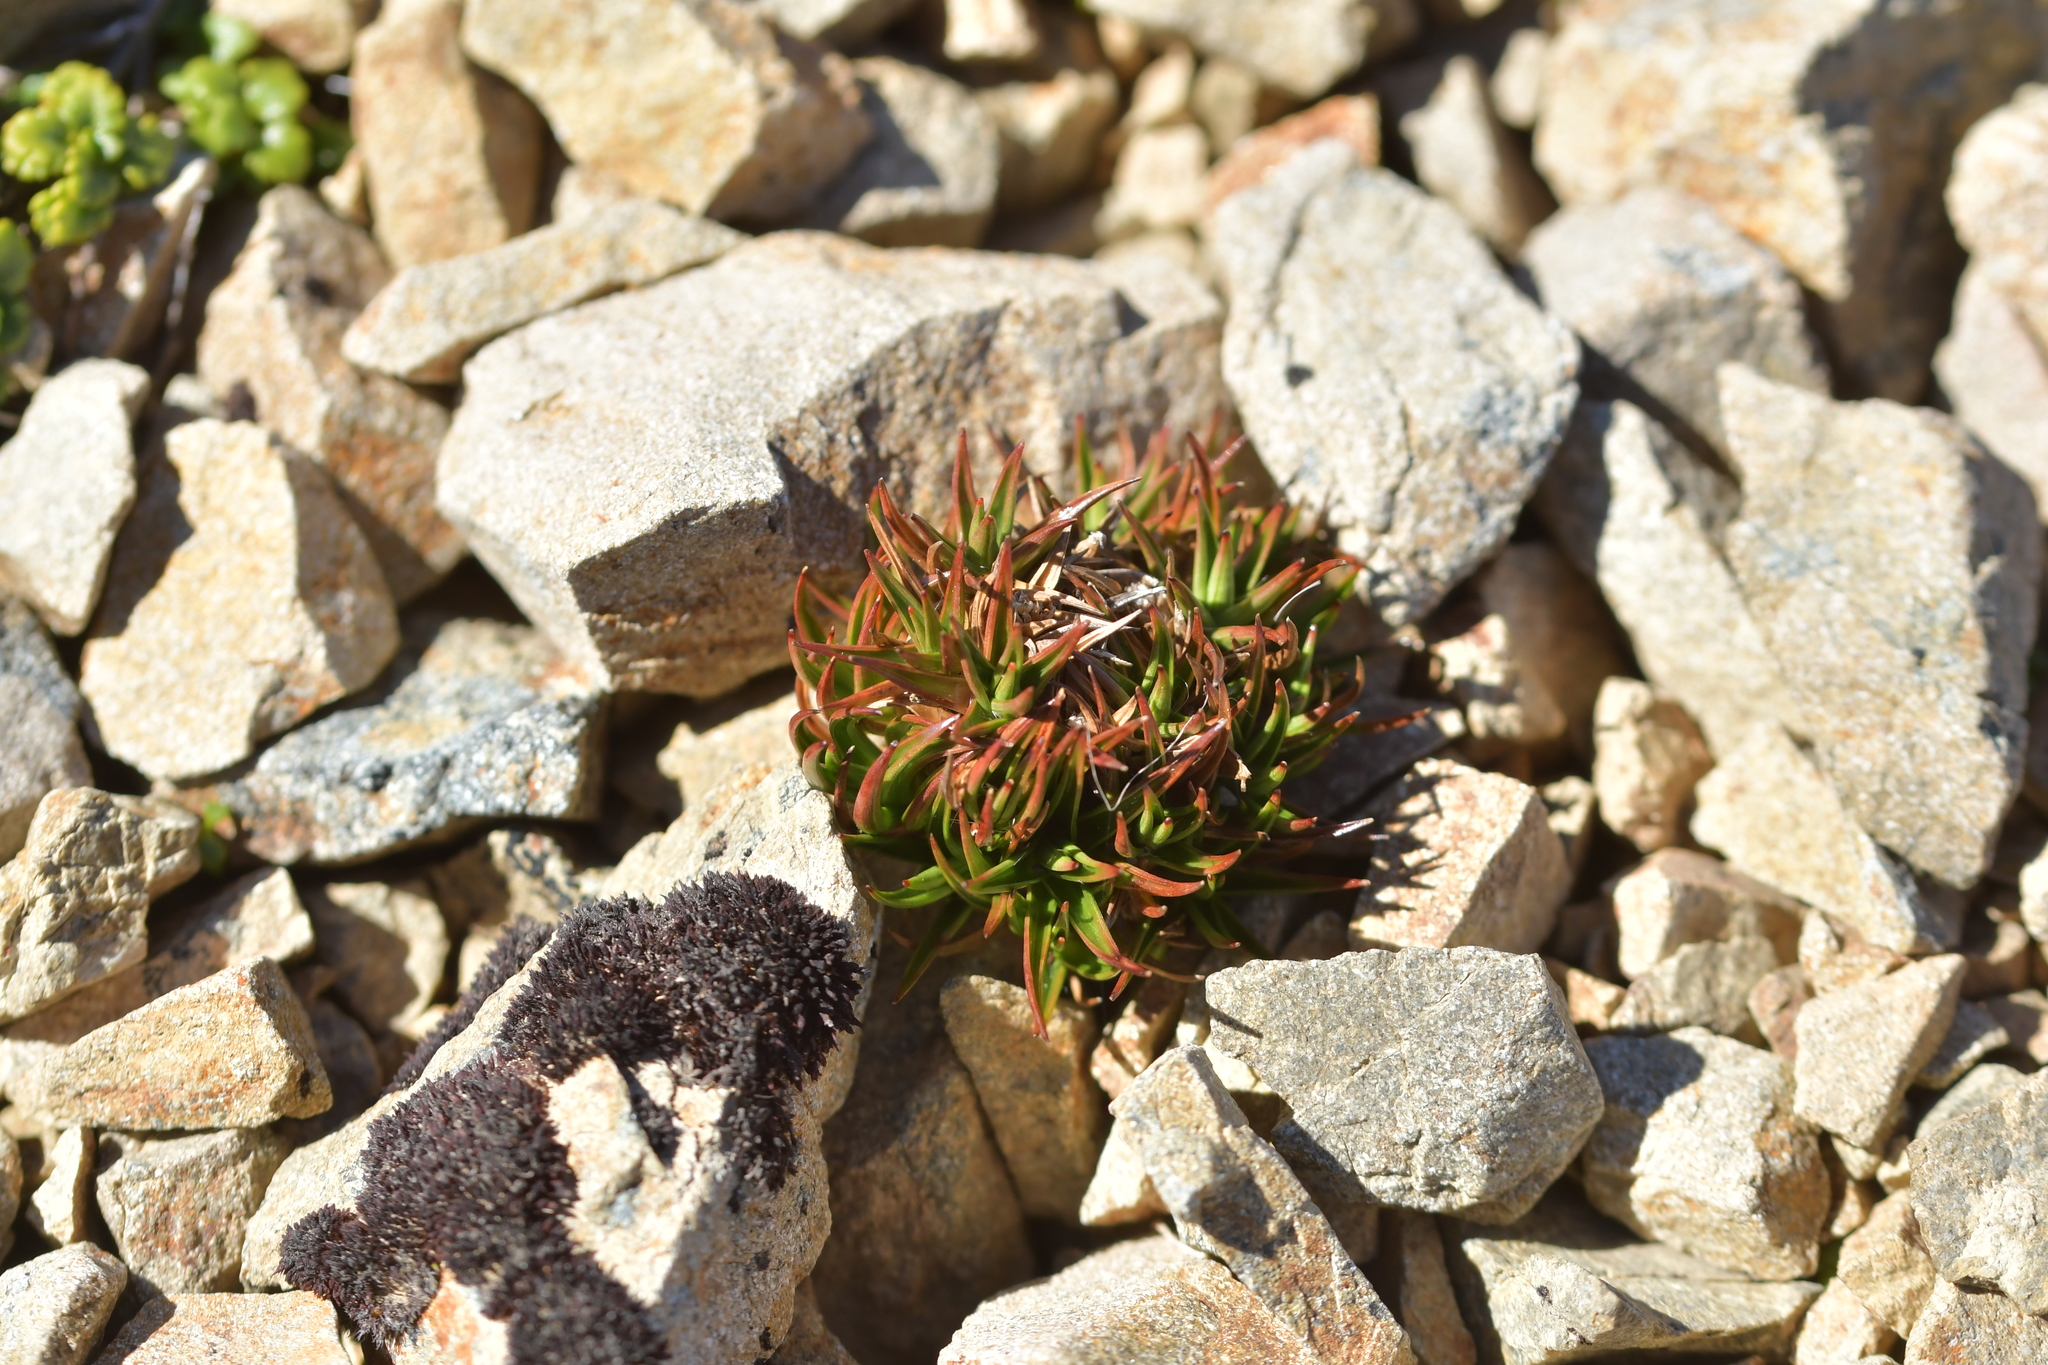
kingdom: Plantae
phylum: Tracheophyta
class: Liliopsida
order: Poales
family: Juncaceae
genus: Luzula
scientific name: Luzula colensoi
